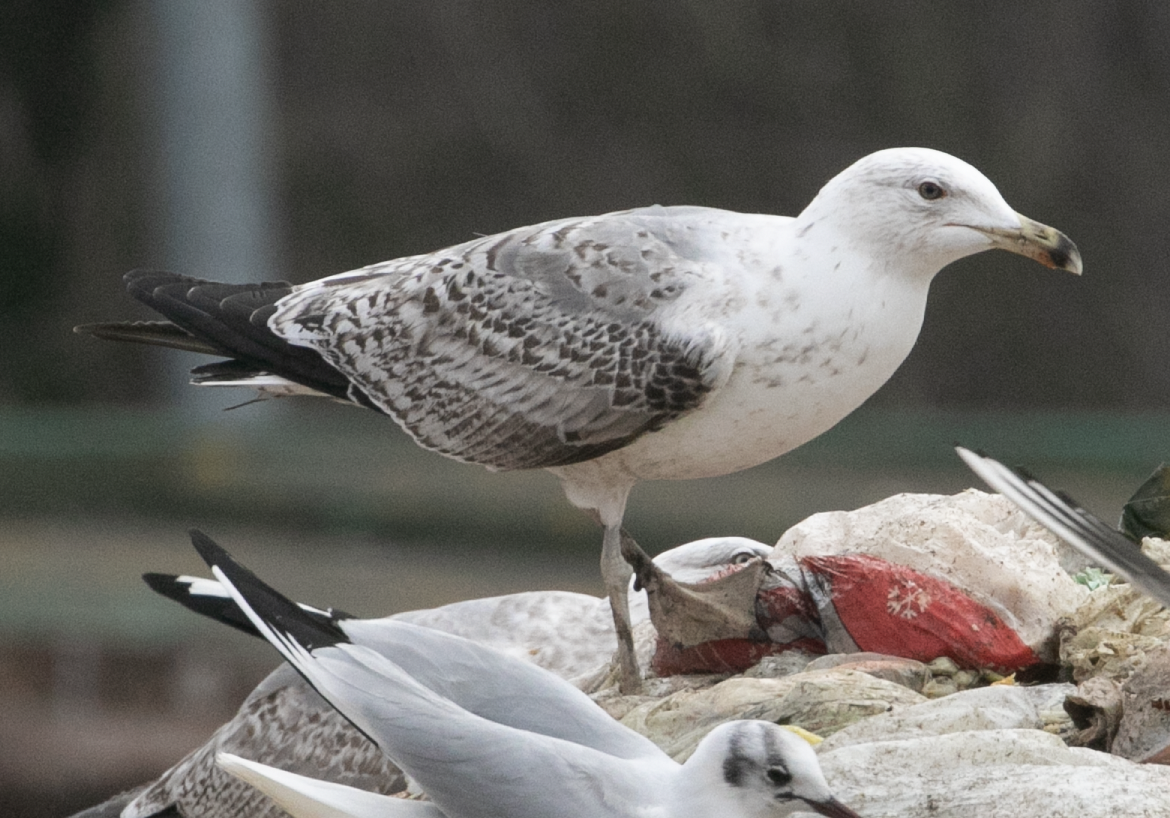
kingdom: Animalia
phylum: Chordata
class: Aves
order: Charadriiformes
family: Laridae
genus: Larus
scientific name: Larus michahellis
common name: Yellow-legged gull
